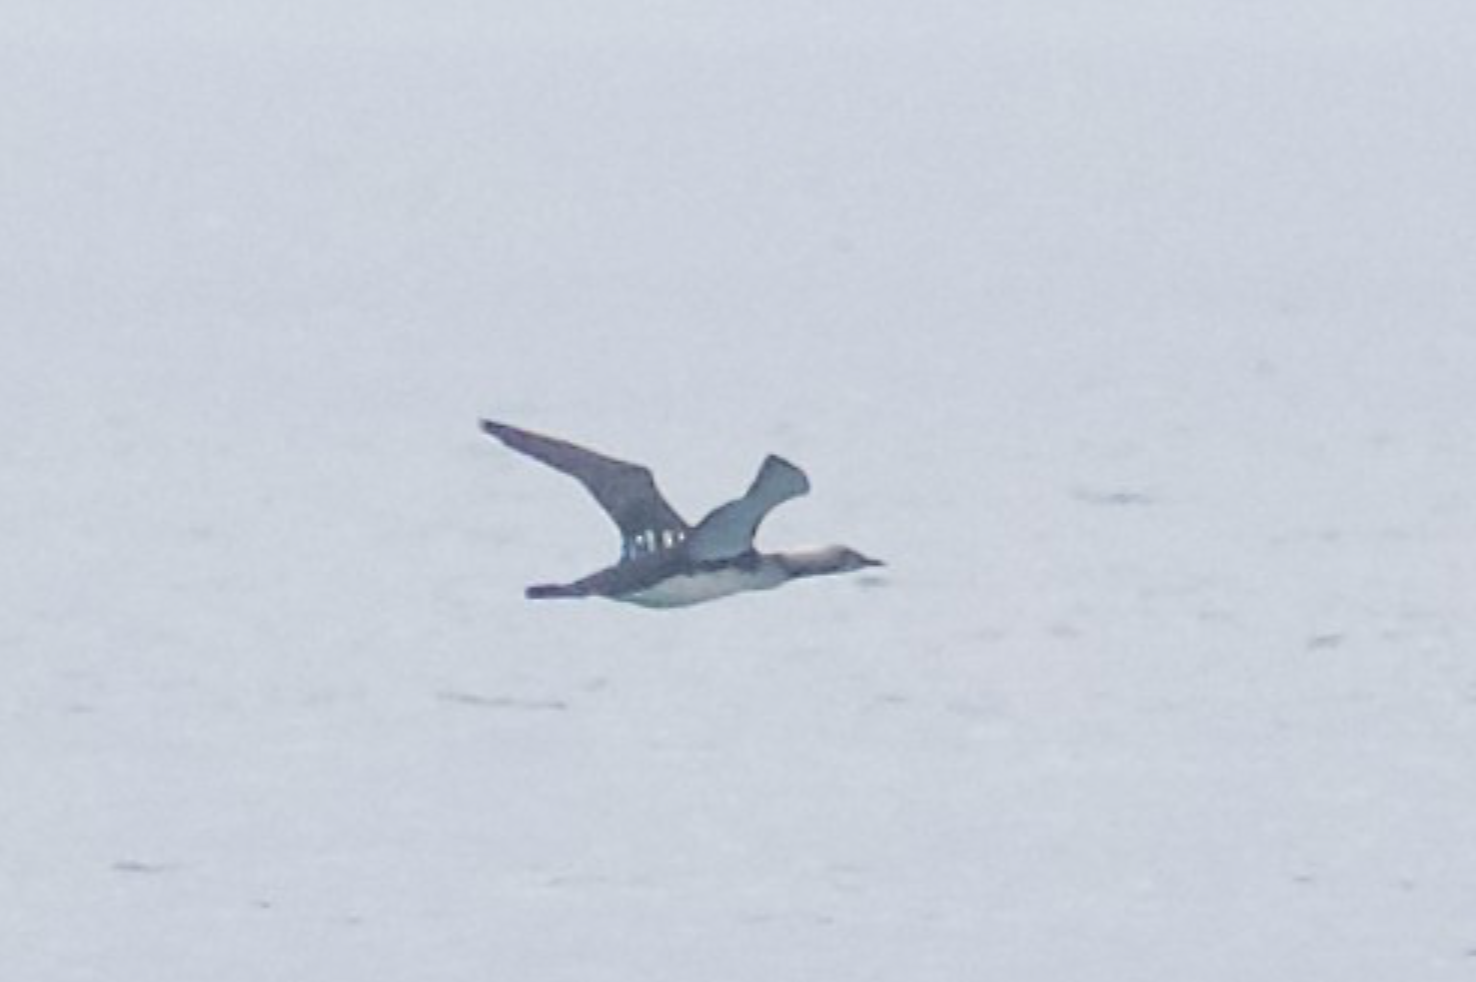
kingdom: Animalia
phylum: Chordata
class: Aves
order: Gaviiformes
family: Gaviidae
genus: Gavia
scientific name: Gavia pacifica
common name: Pacific loon
